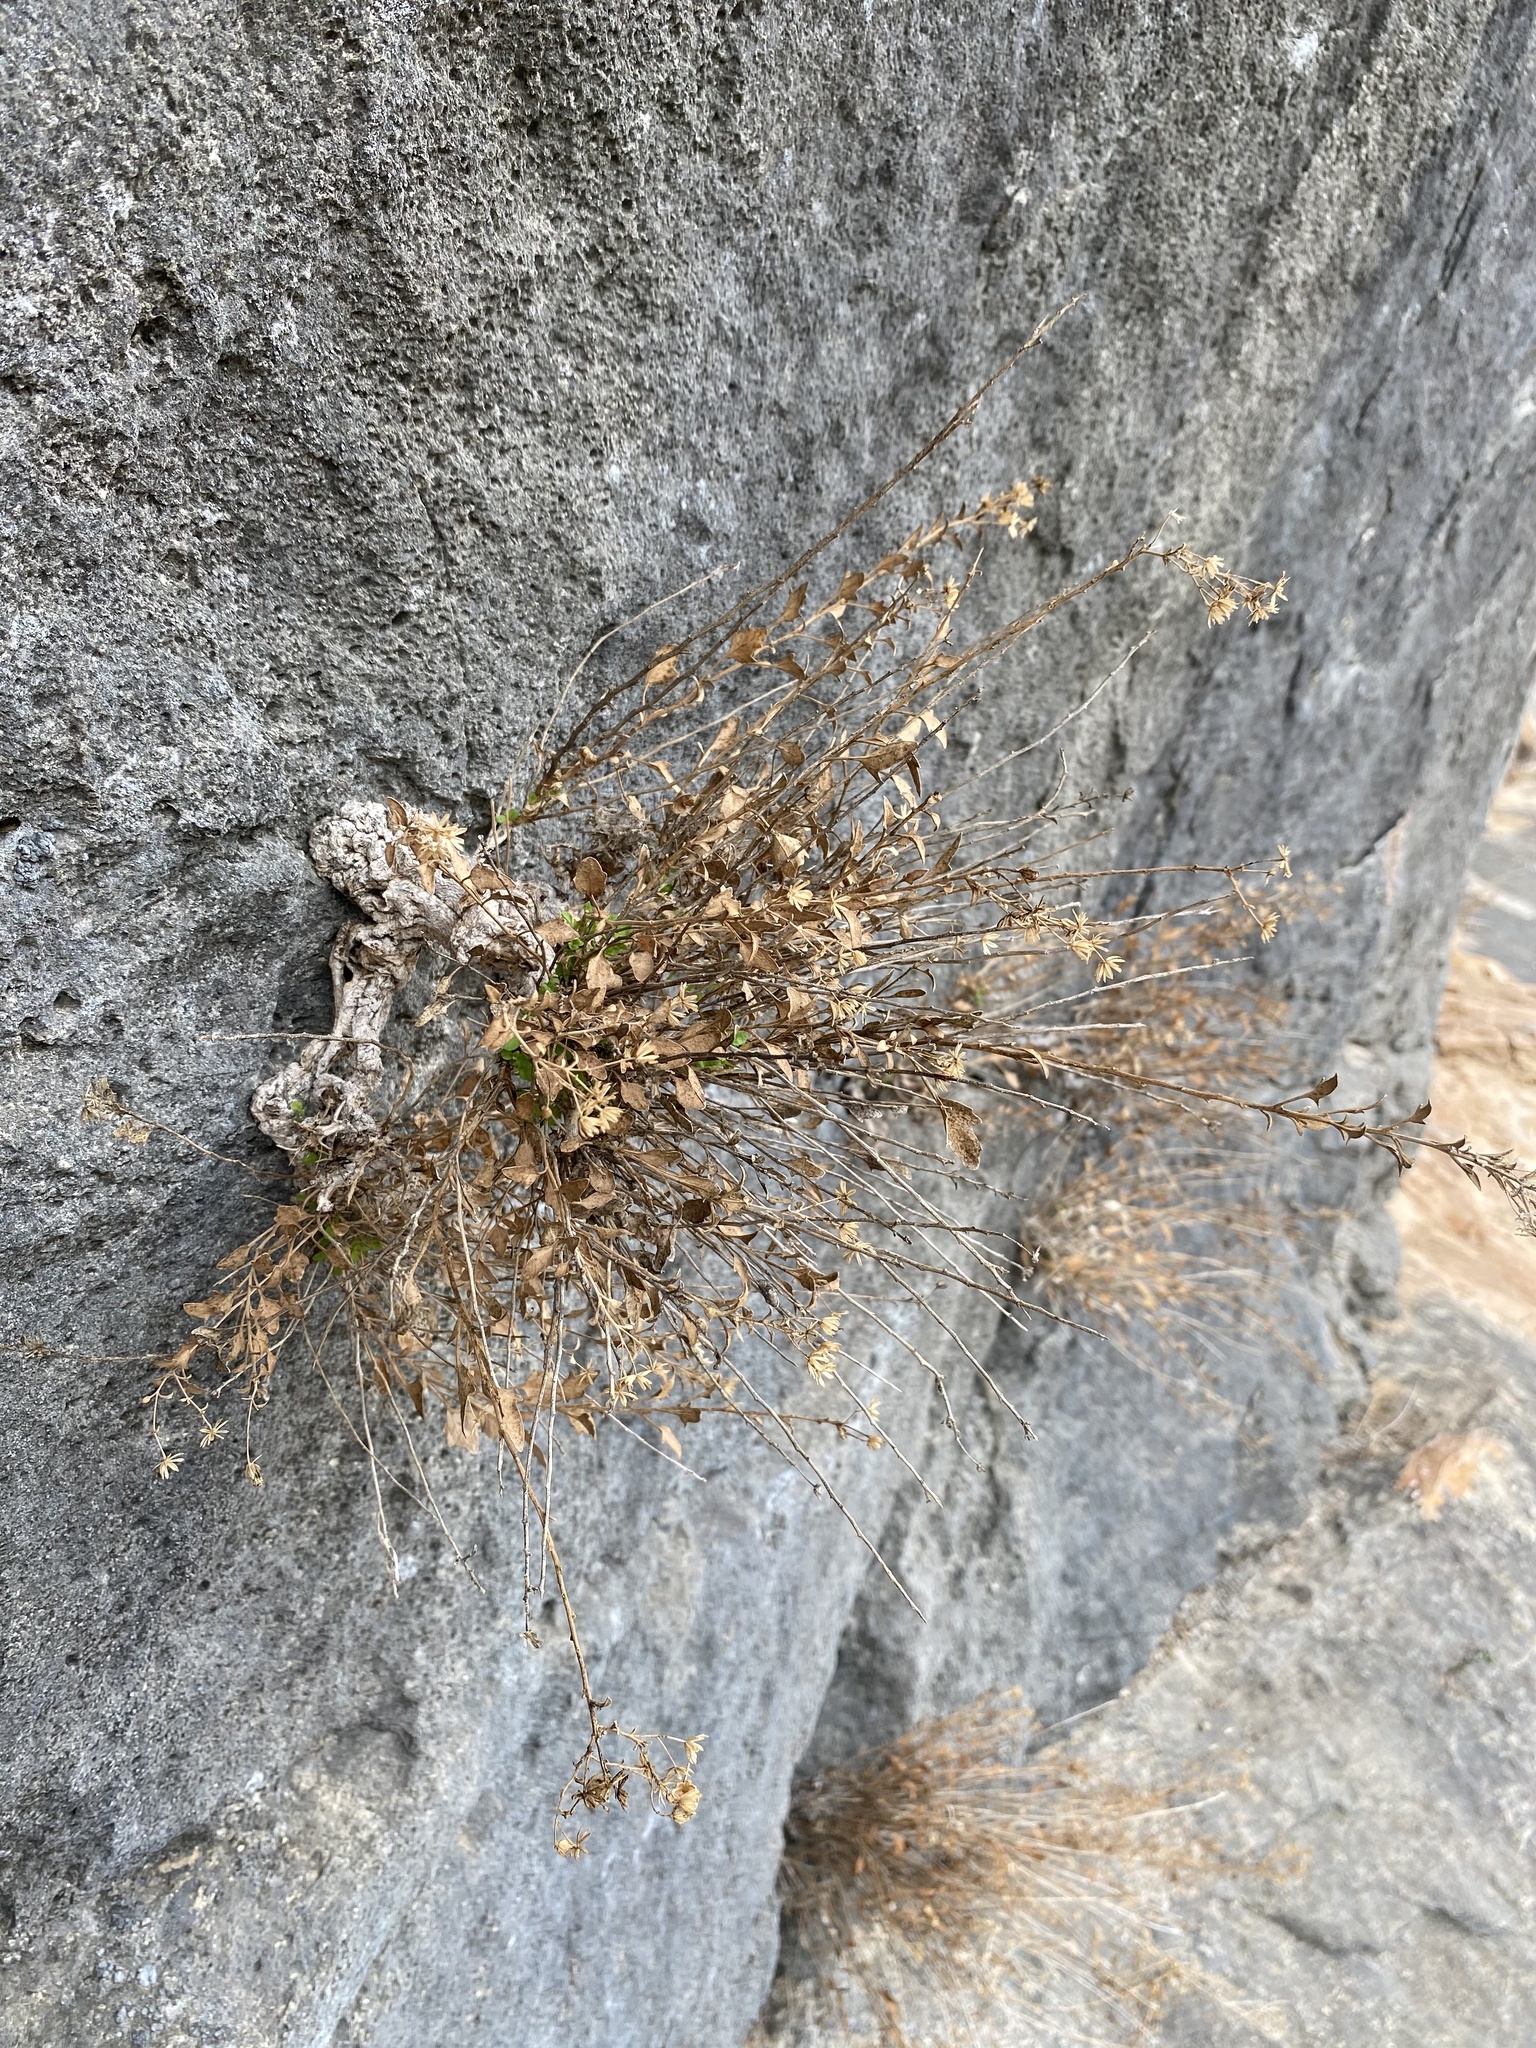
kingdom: Plantae
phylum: Tracheophyta
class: Magnoliopsida
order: Asterales
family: Asteraceae
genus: Laphamia
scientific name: Laphamia angustifolia
